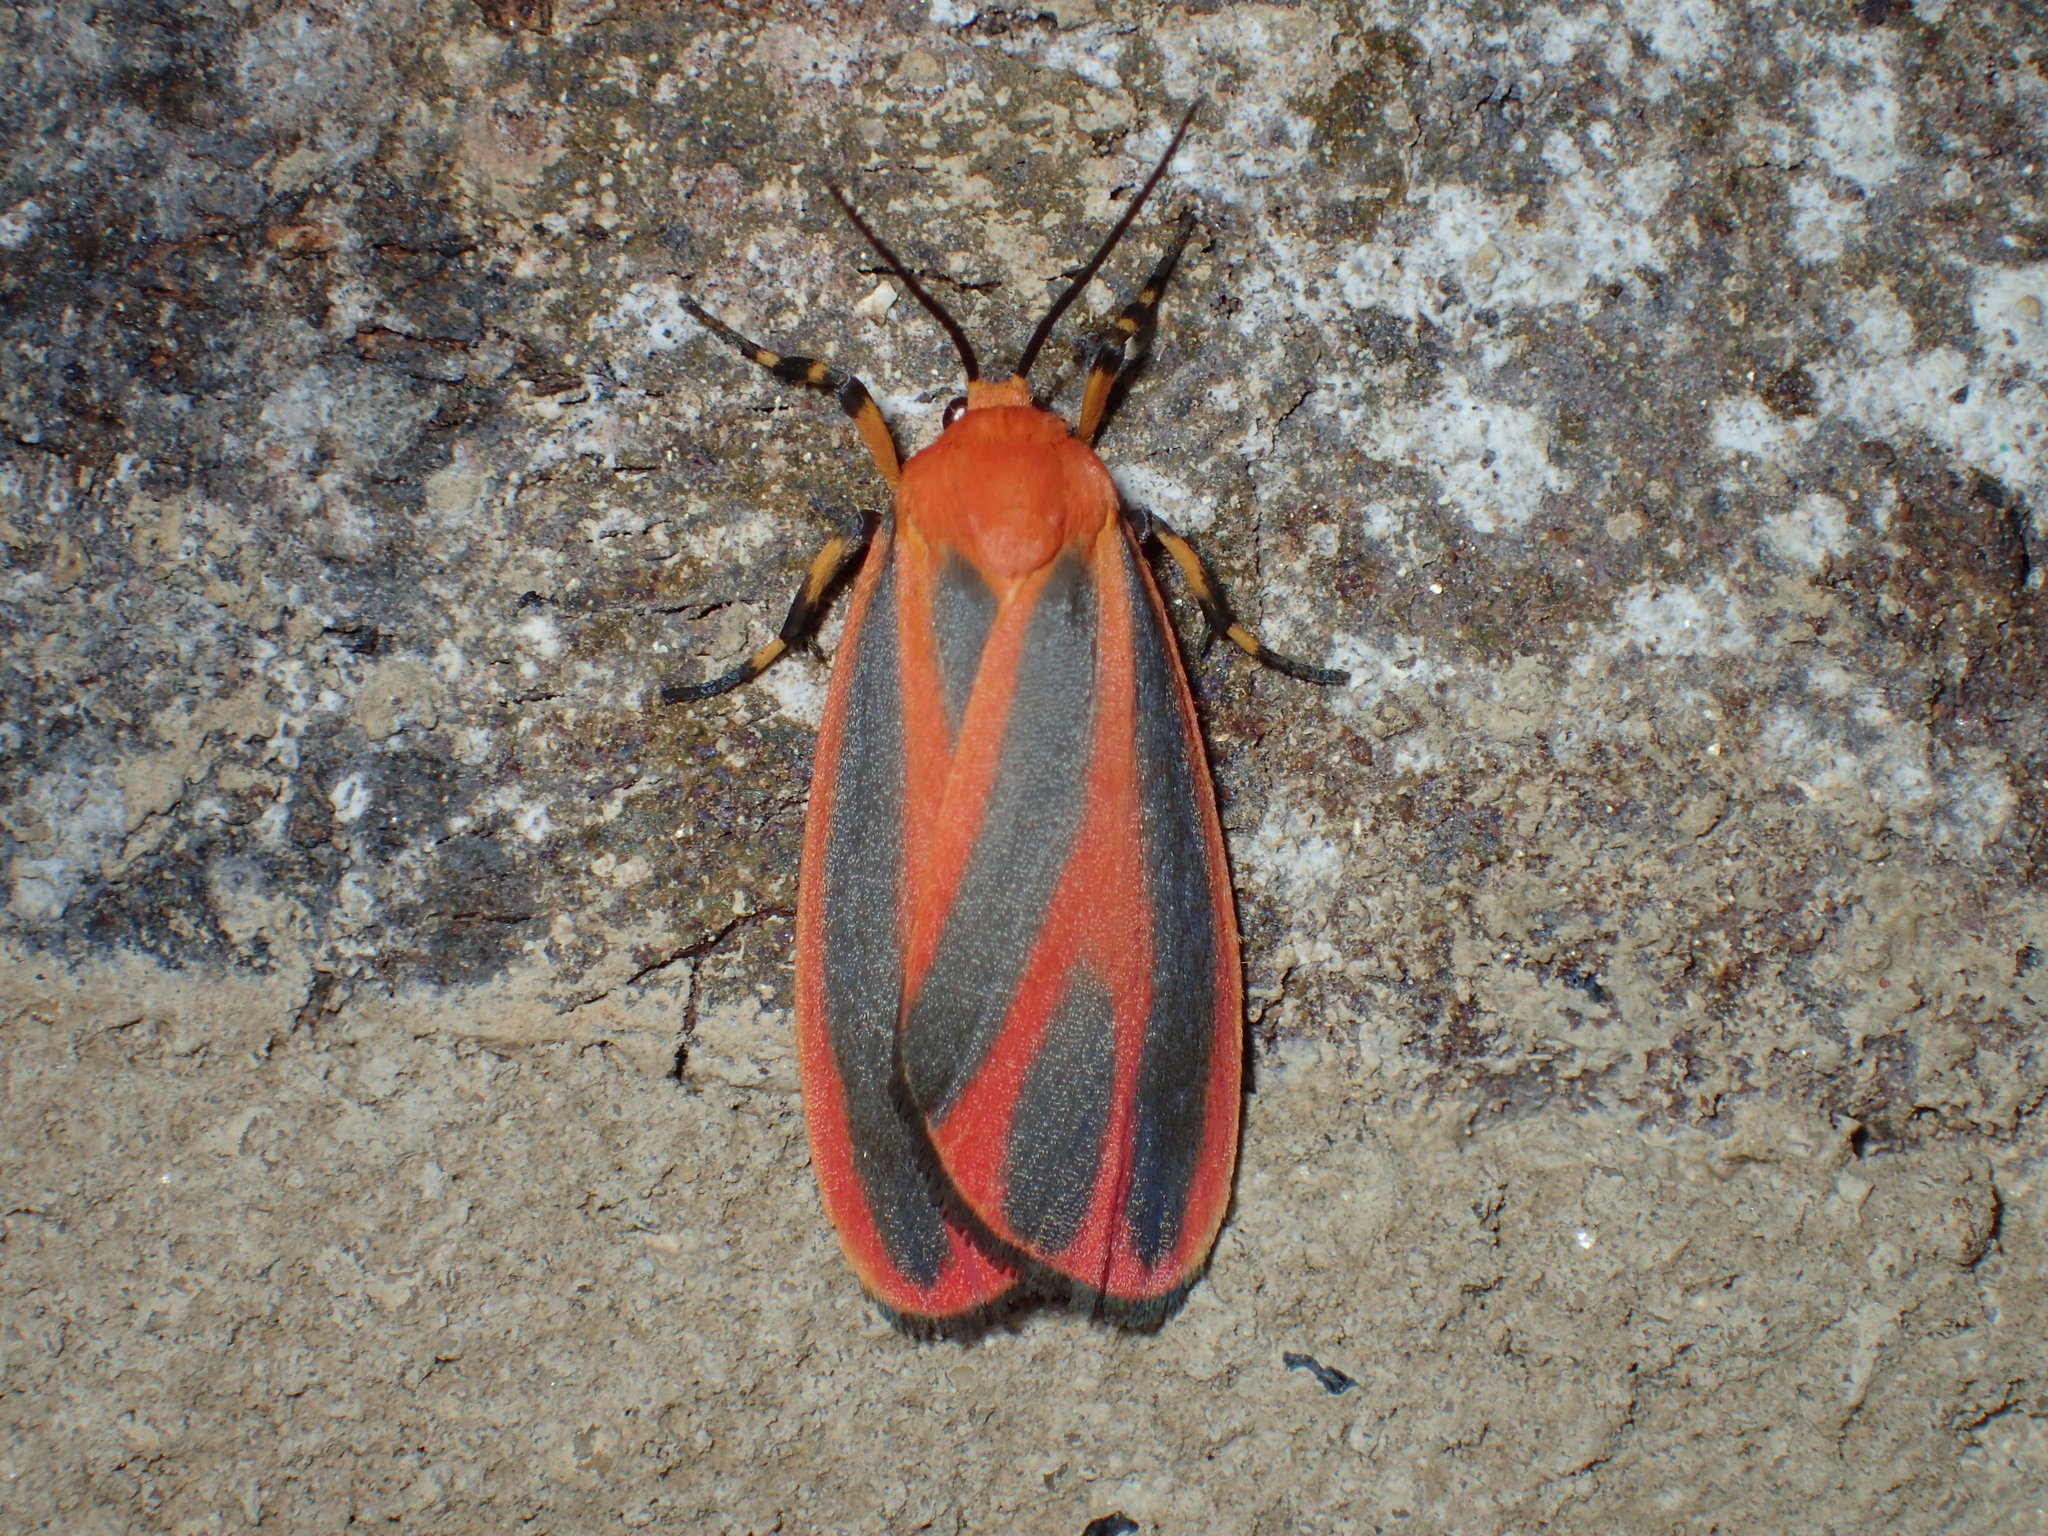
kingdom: Animalia
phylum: Arthropoda
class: Insecta
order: Lepidoptera
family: Erebidae
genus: Hypoprepia
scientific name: Hypoprepia miniata
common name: Scarlet-winged lichen moth
